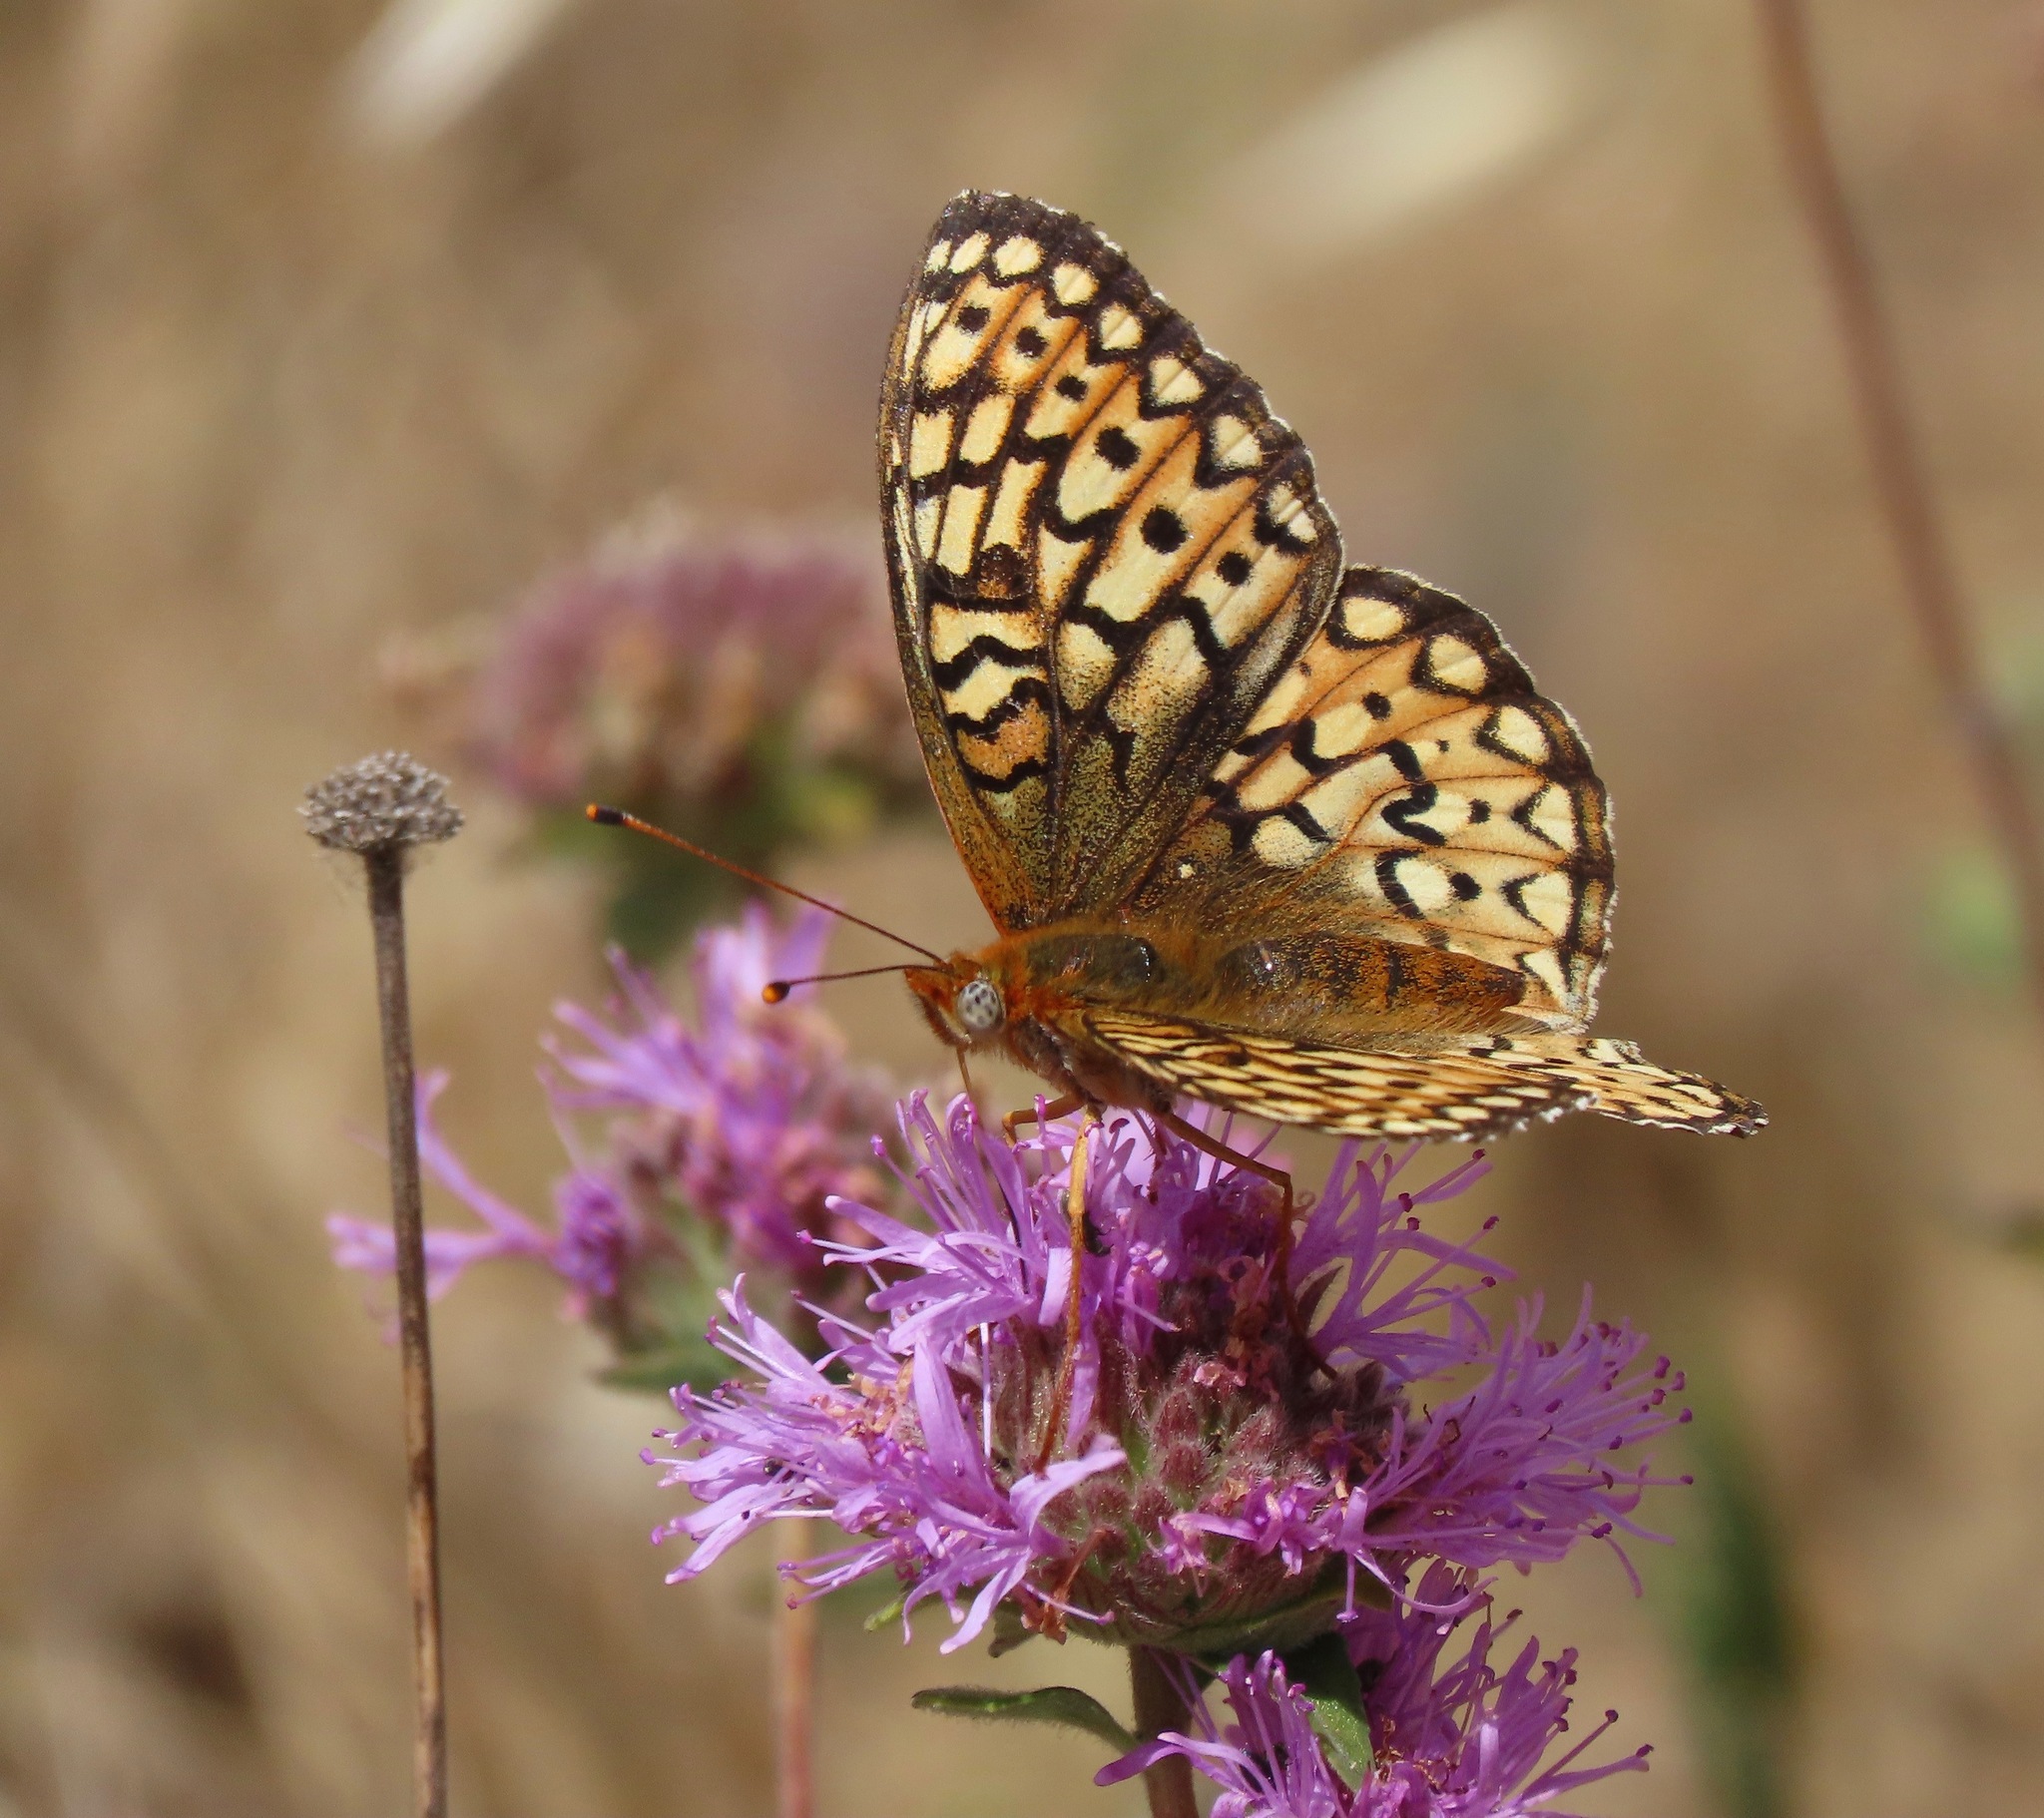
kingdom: Animalia
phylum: Arthropoda
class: Insecta
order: Lepidoptera
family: Nymphalidae
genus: Speyeria
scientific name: Speyeria callippe
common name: Callippe fritillary
